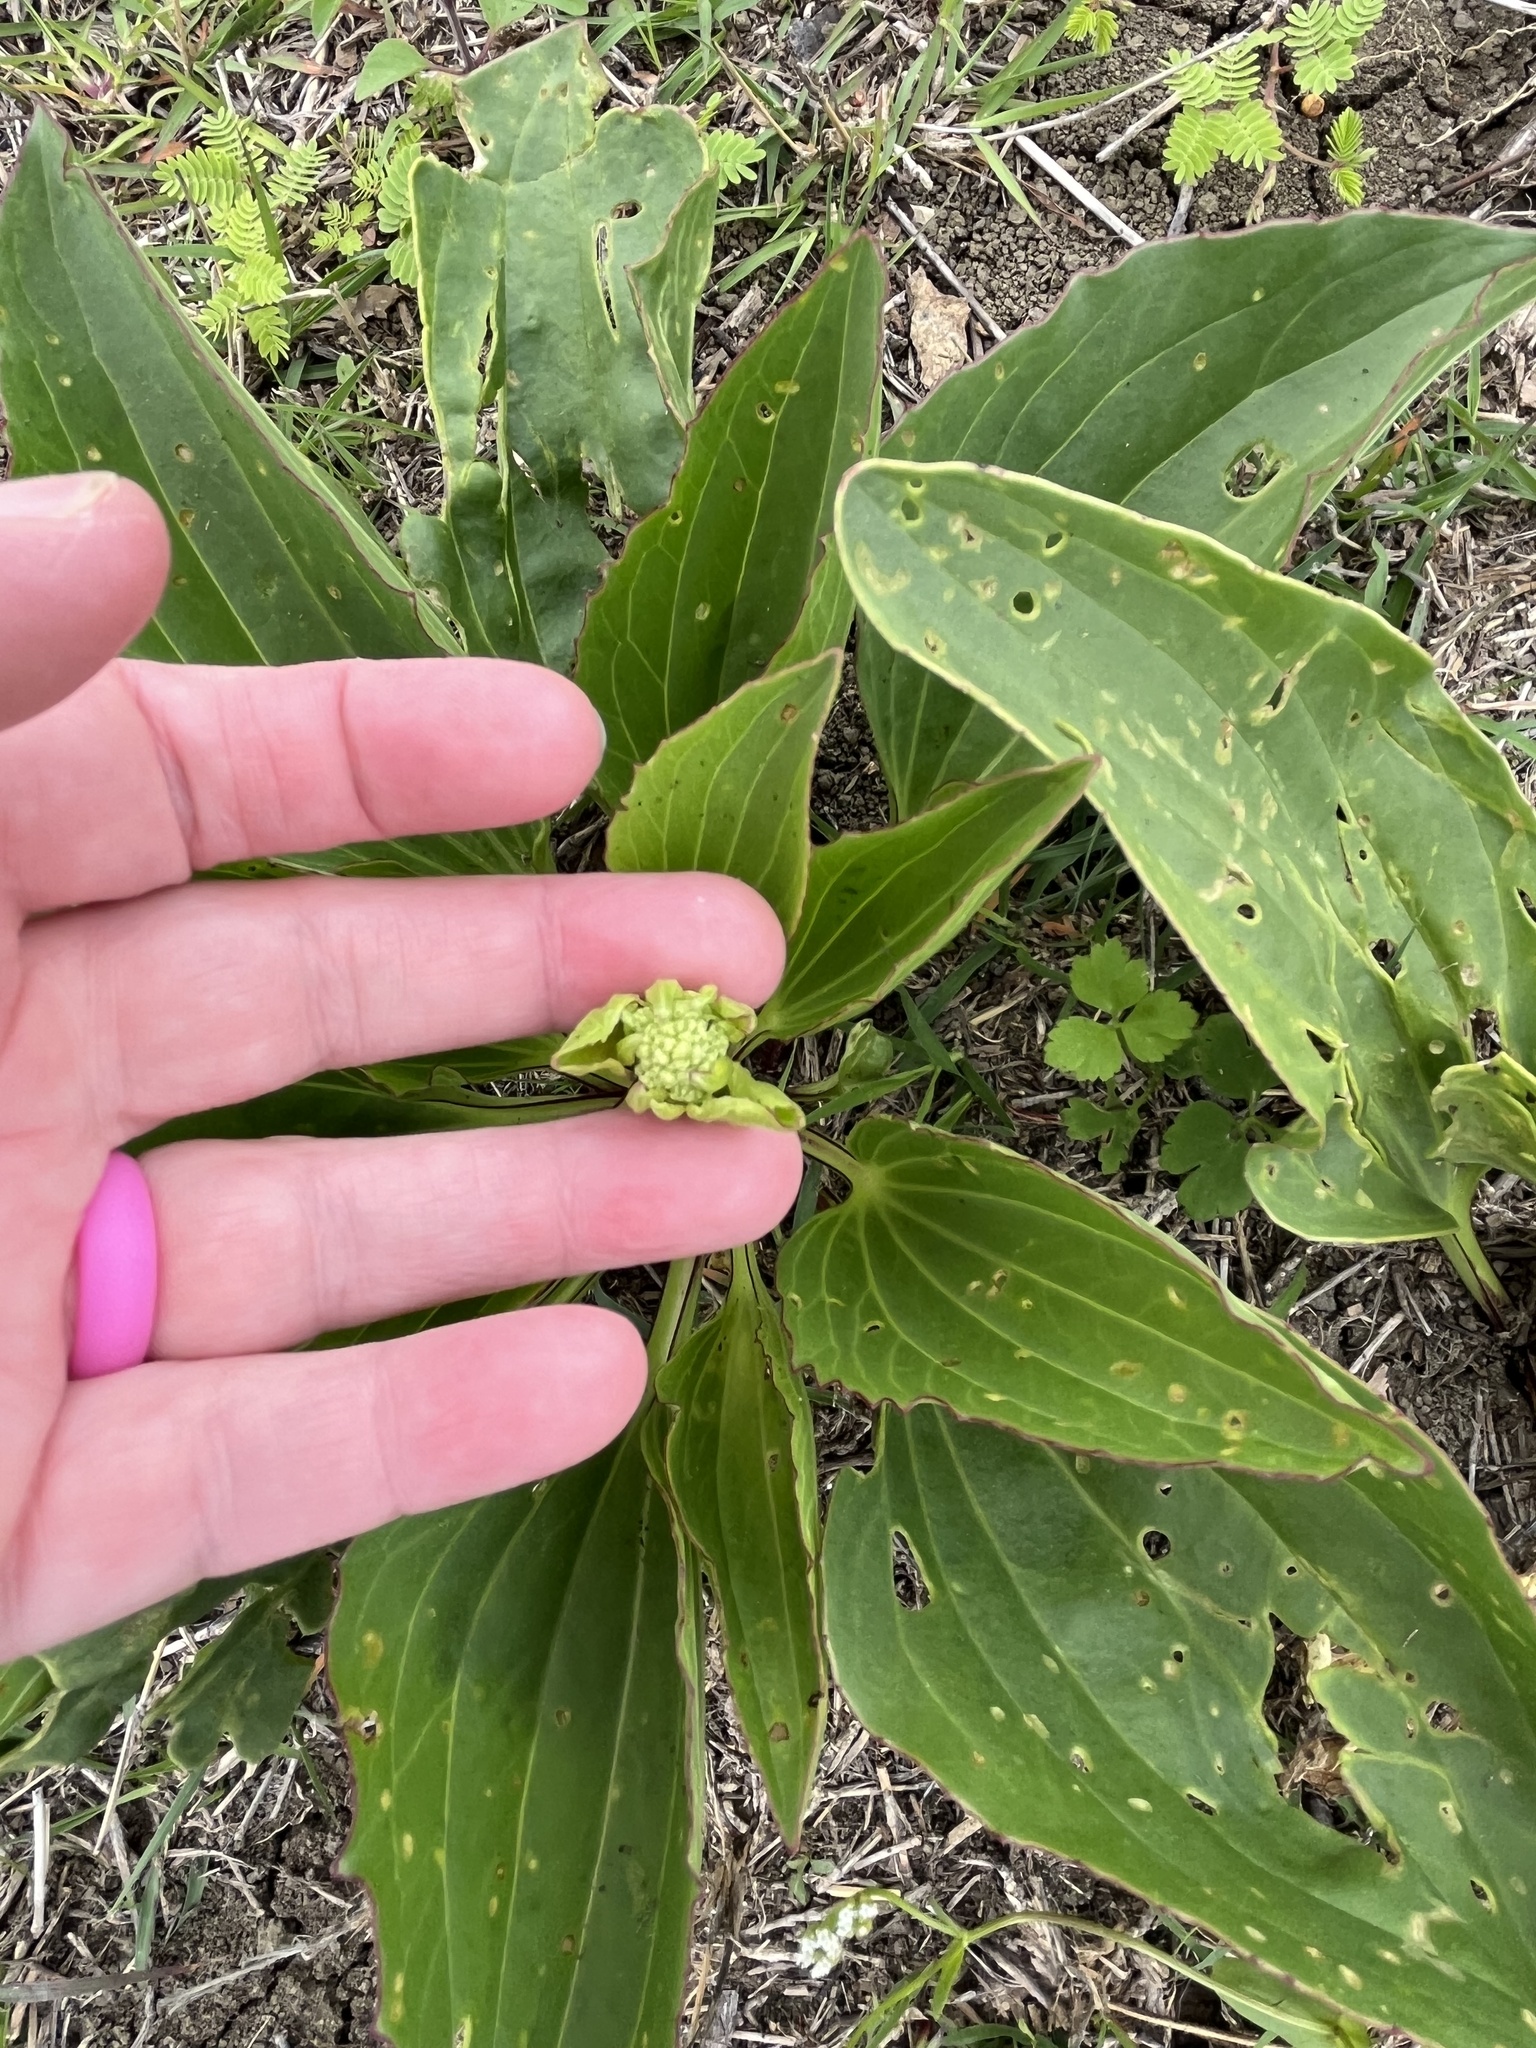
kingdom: Plantae
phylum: Tracheophyta
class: Magnoliopsida
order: Asterales
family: Asteraceae
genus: Arnoglossum
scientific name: Arnoglossum plantagineum
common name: Groove-stemmed indian-plantain
